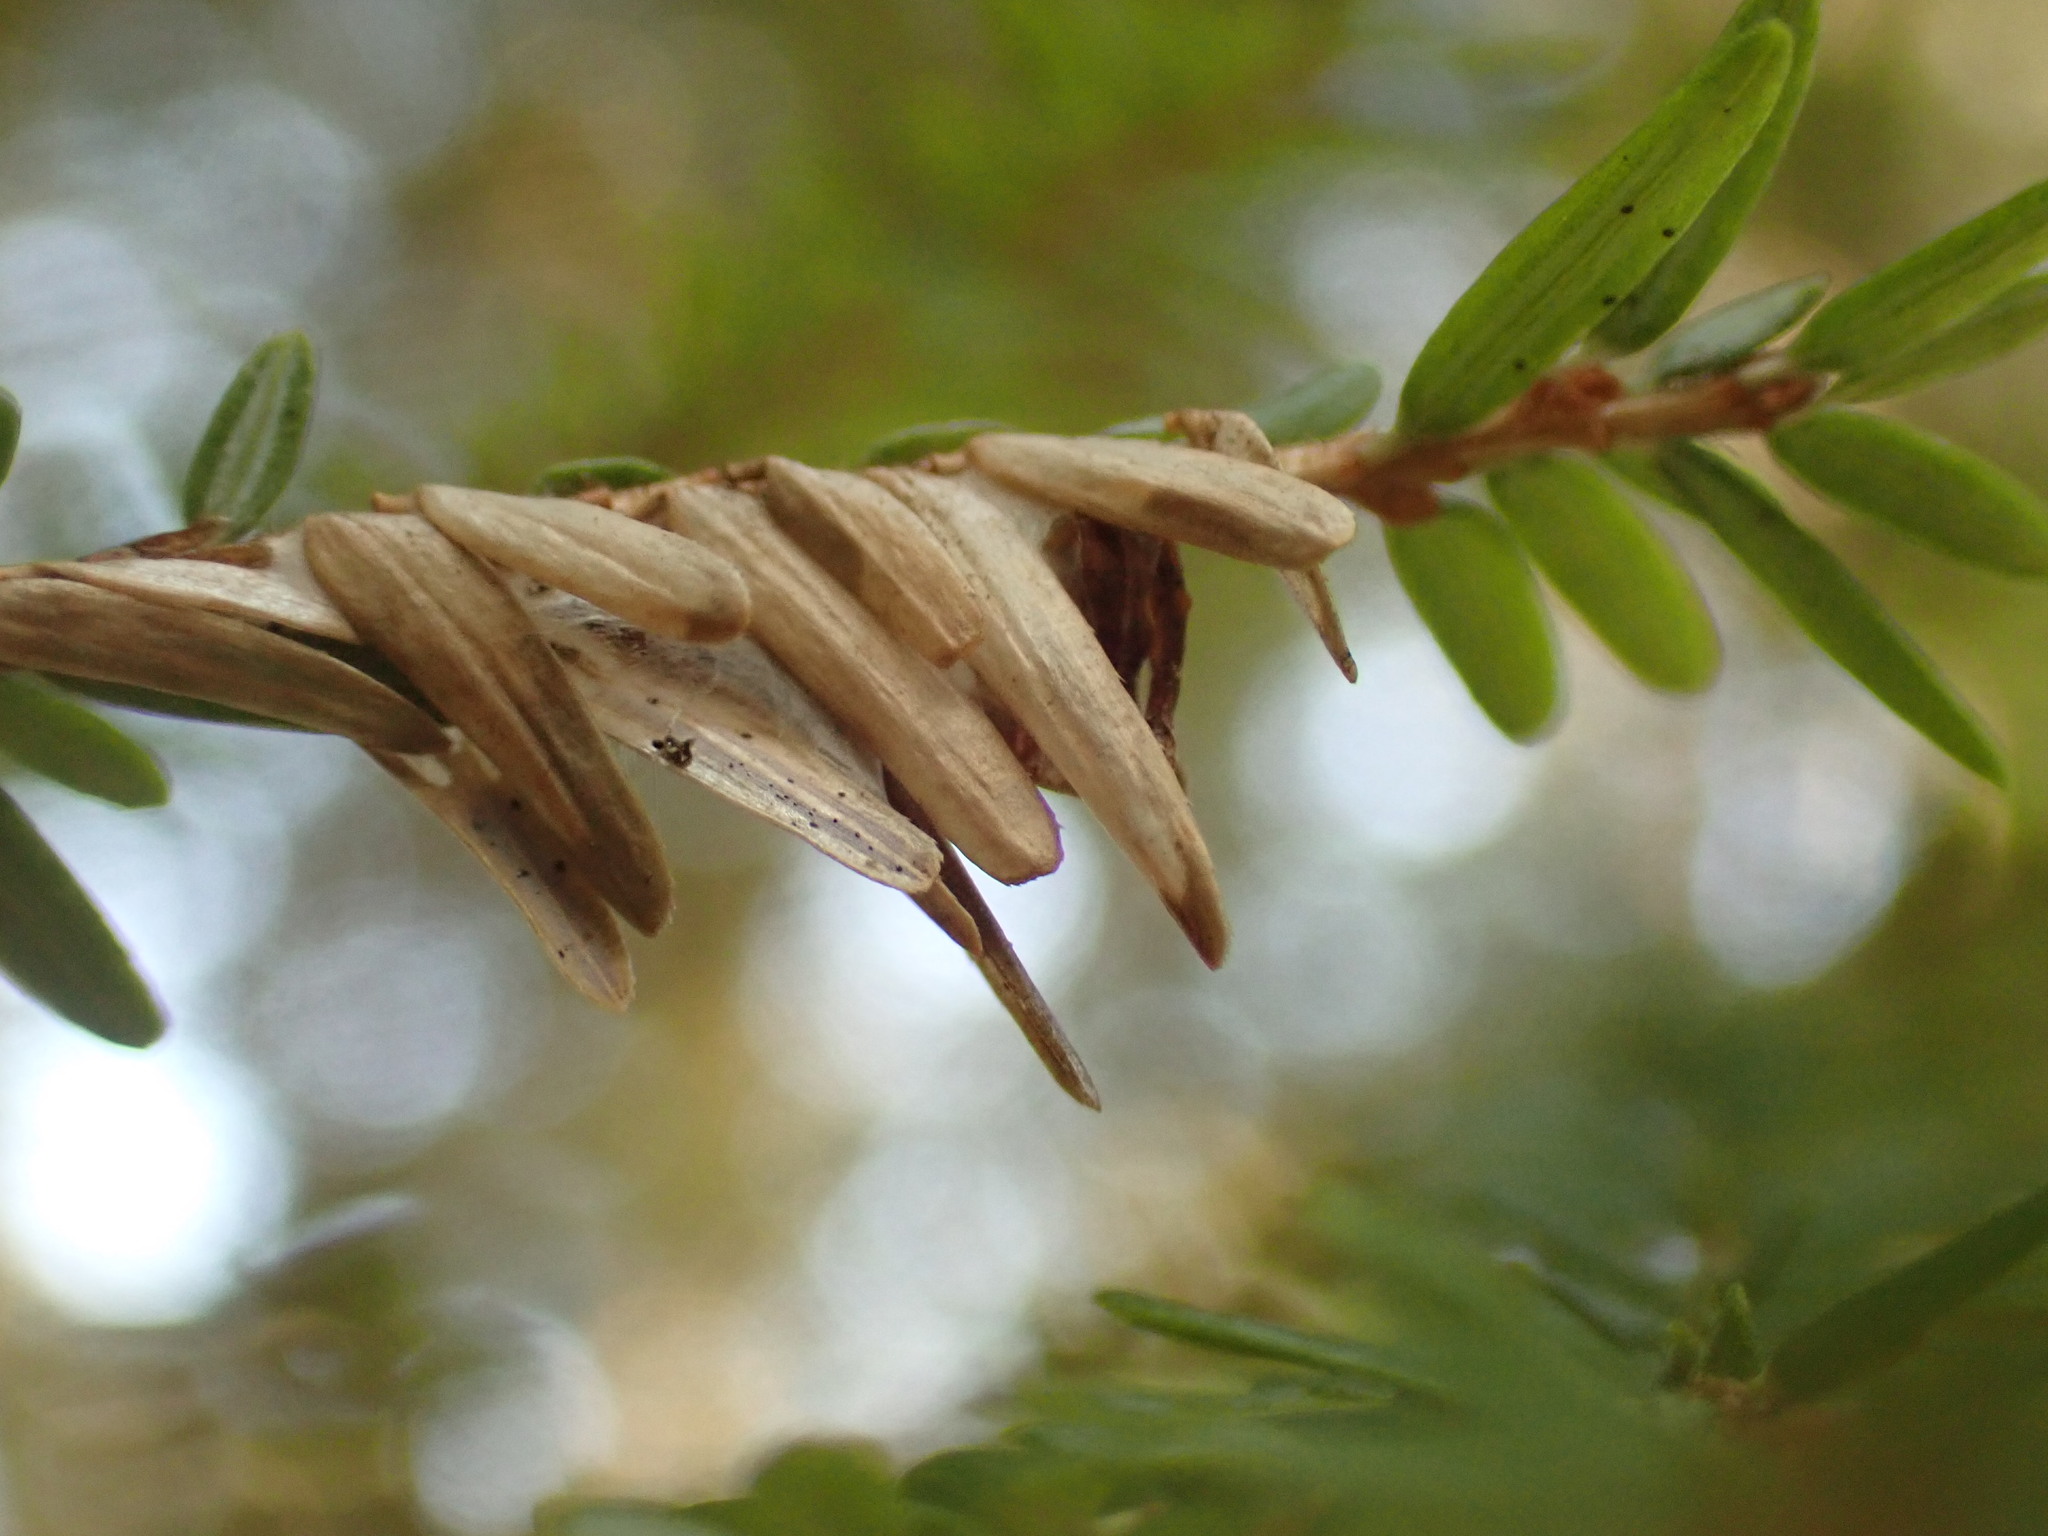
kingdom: Plantae
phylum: Tracheophyta
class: Pinopsida
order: Pinales
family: Pinaceae
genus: Tsuga
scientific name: Tsuga canadensis
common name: Eastern hemlock
